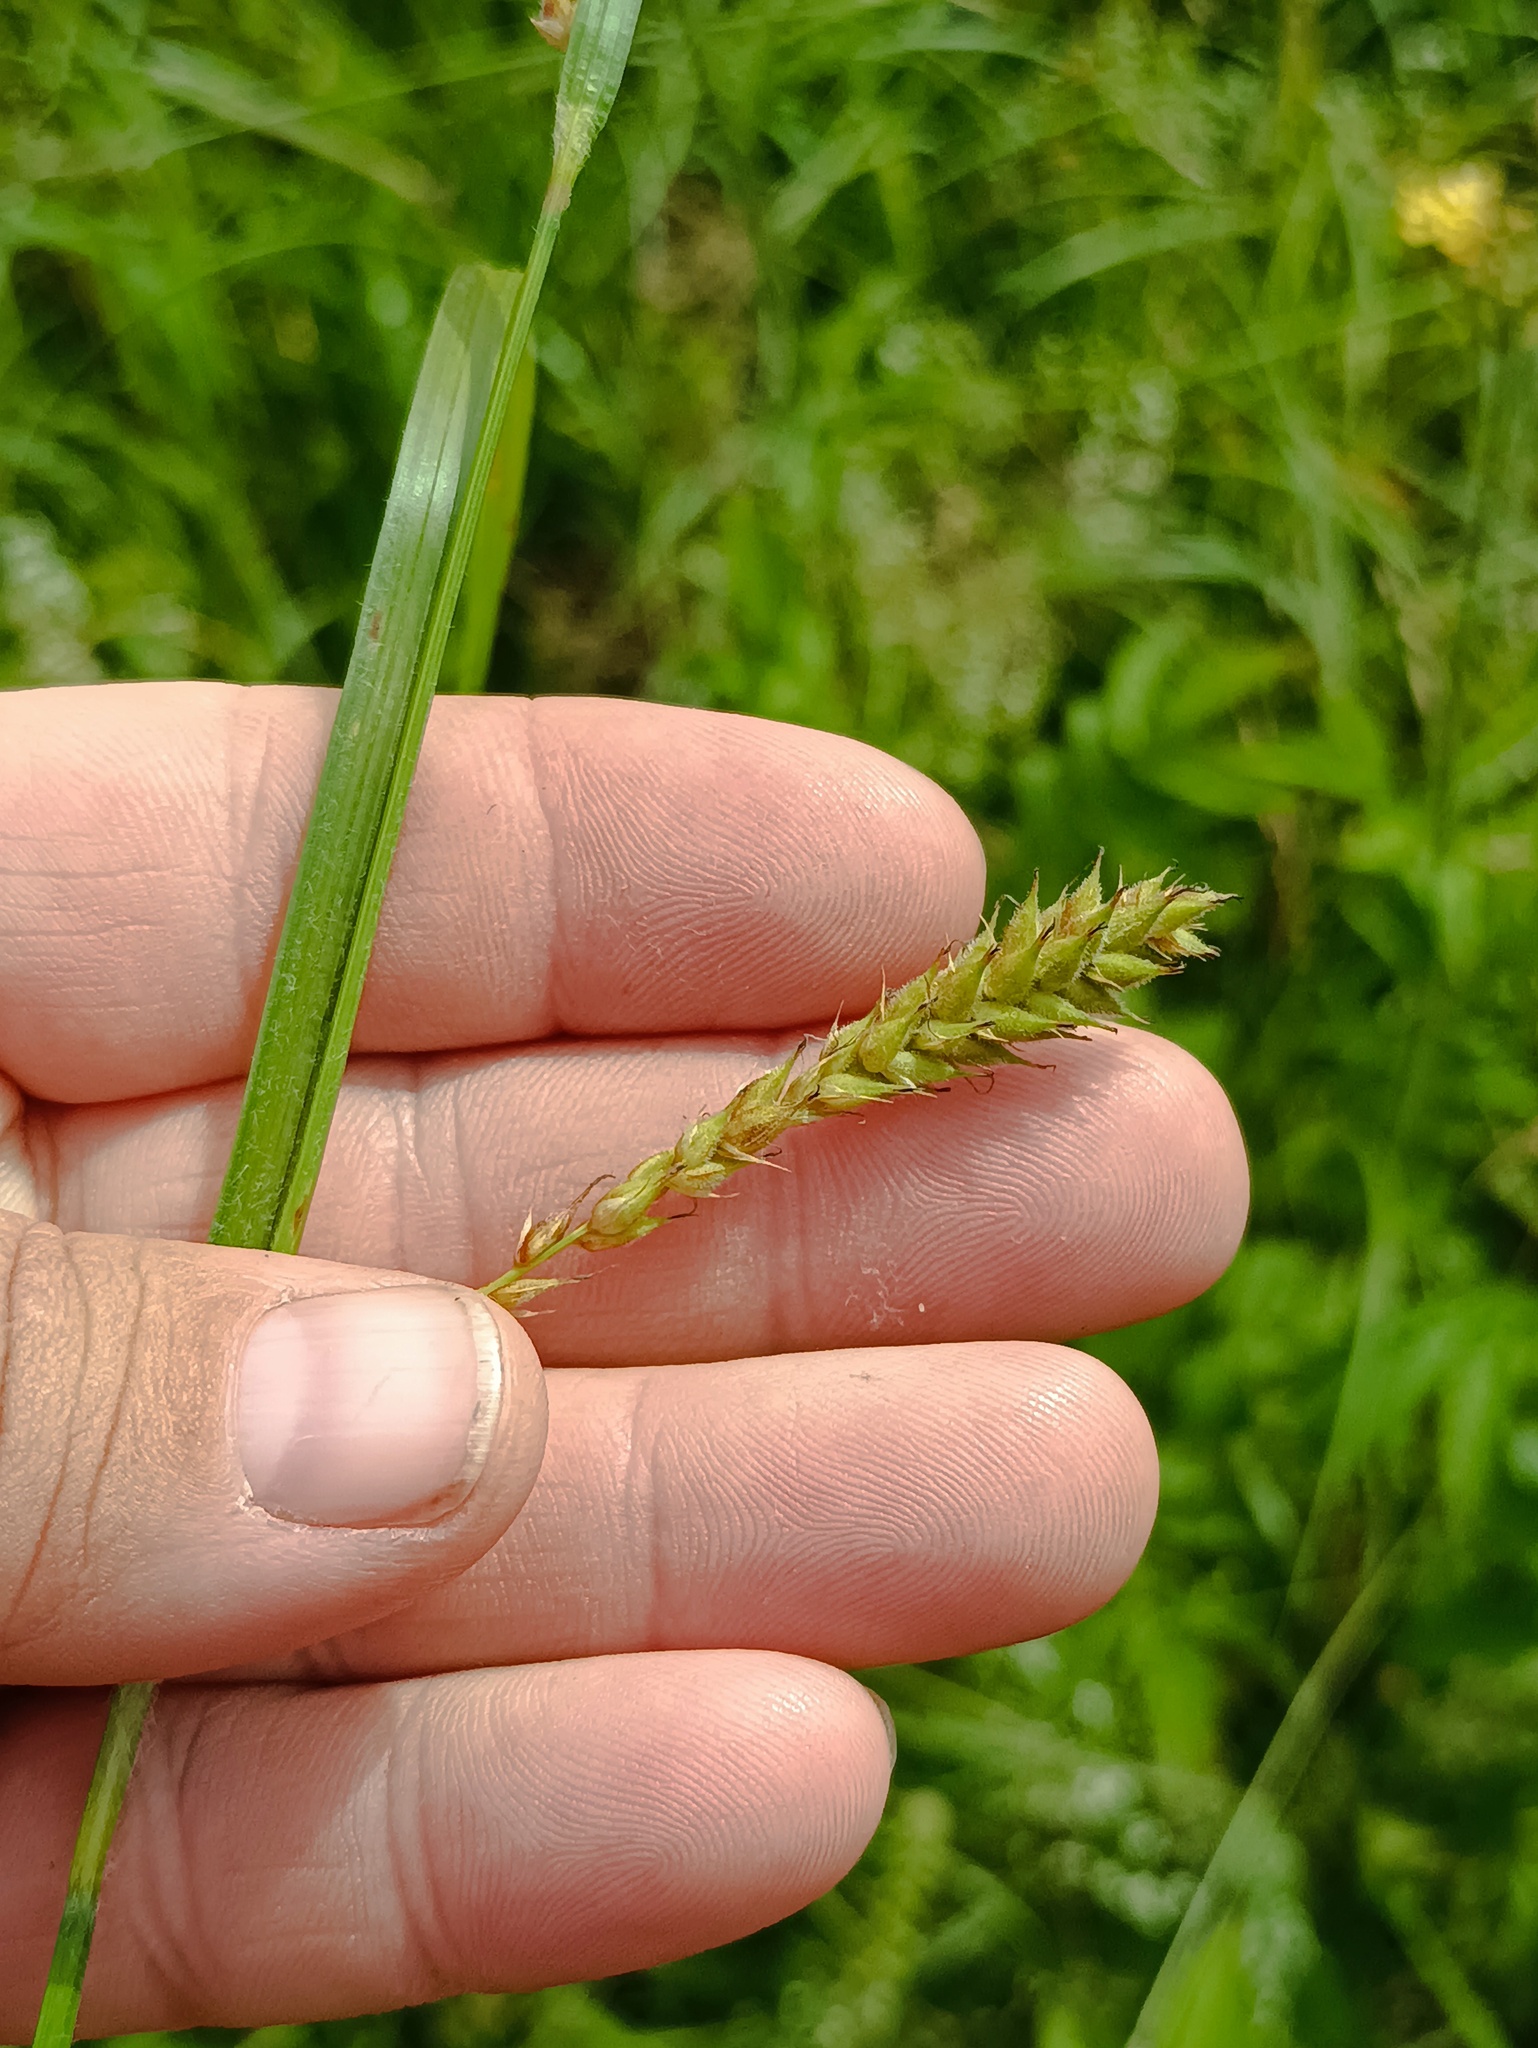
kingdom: Plantae
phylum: Tracheophyta
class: Liliopsida
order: Poales
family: Cyperaceae
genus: Carex
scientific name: Carex hirta
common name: Hairy sedge
